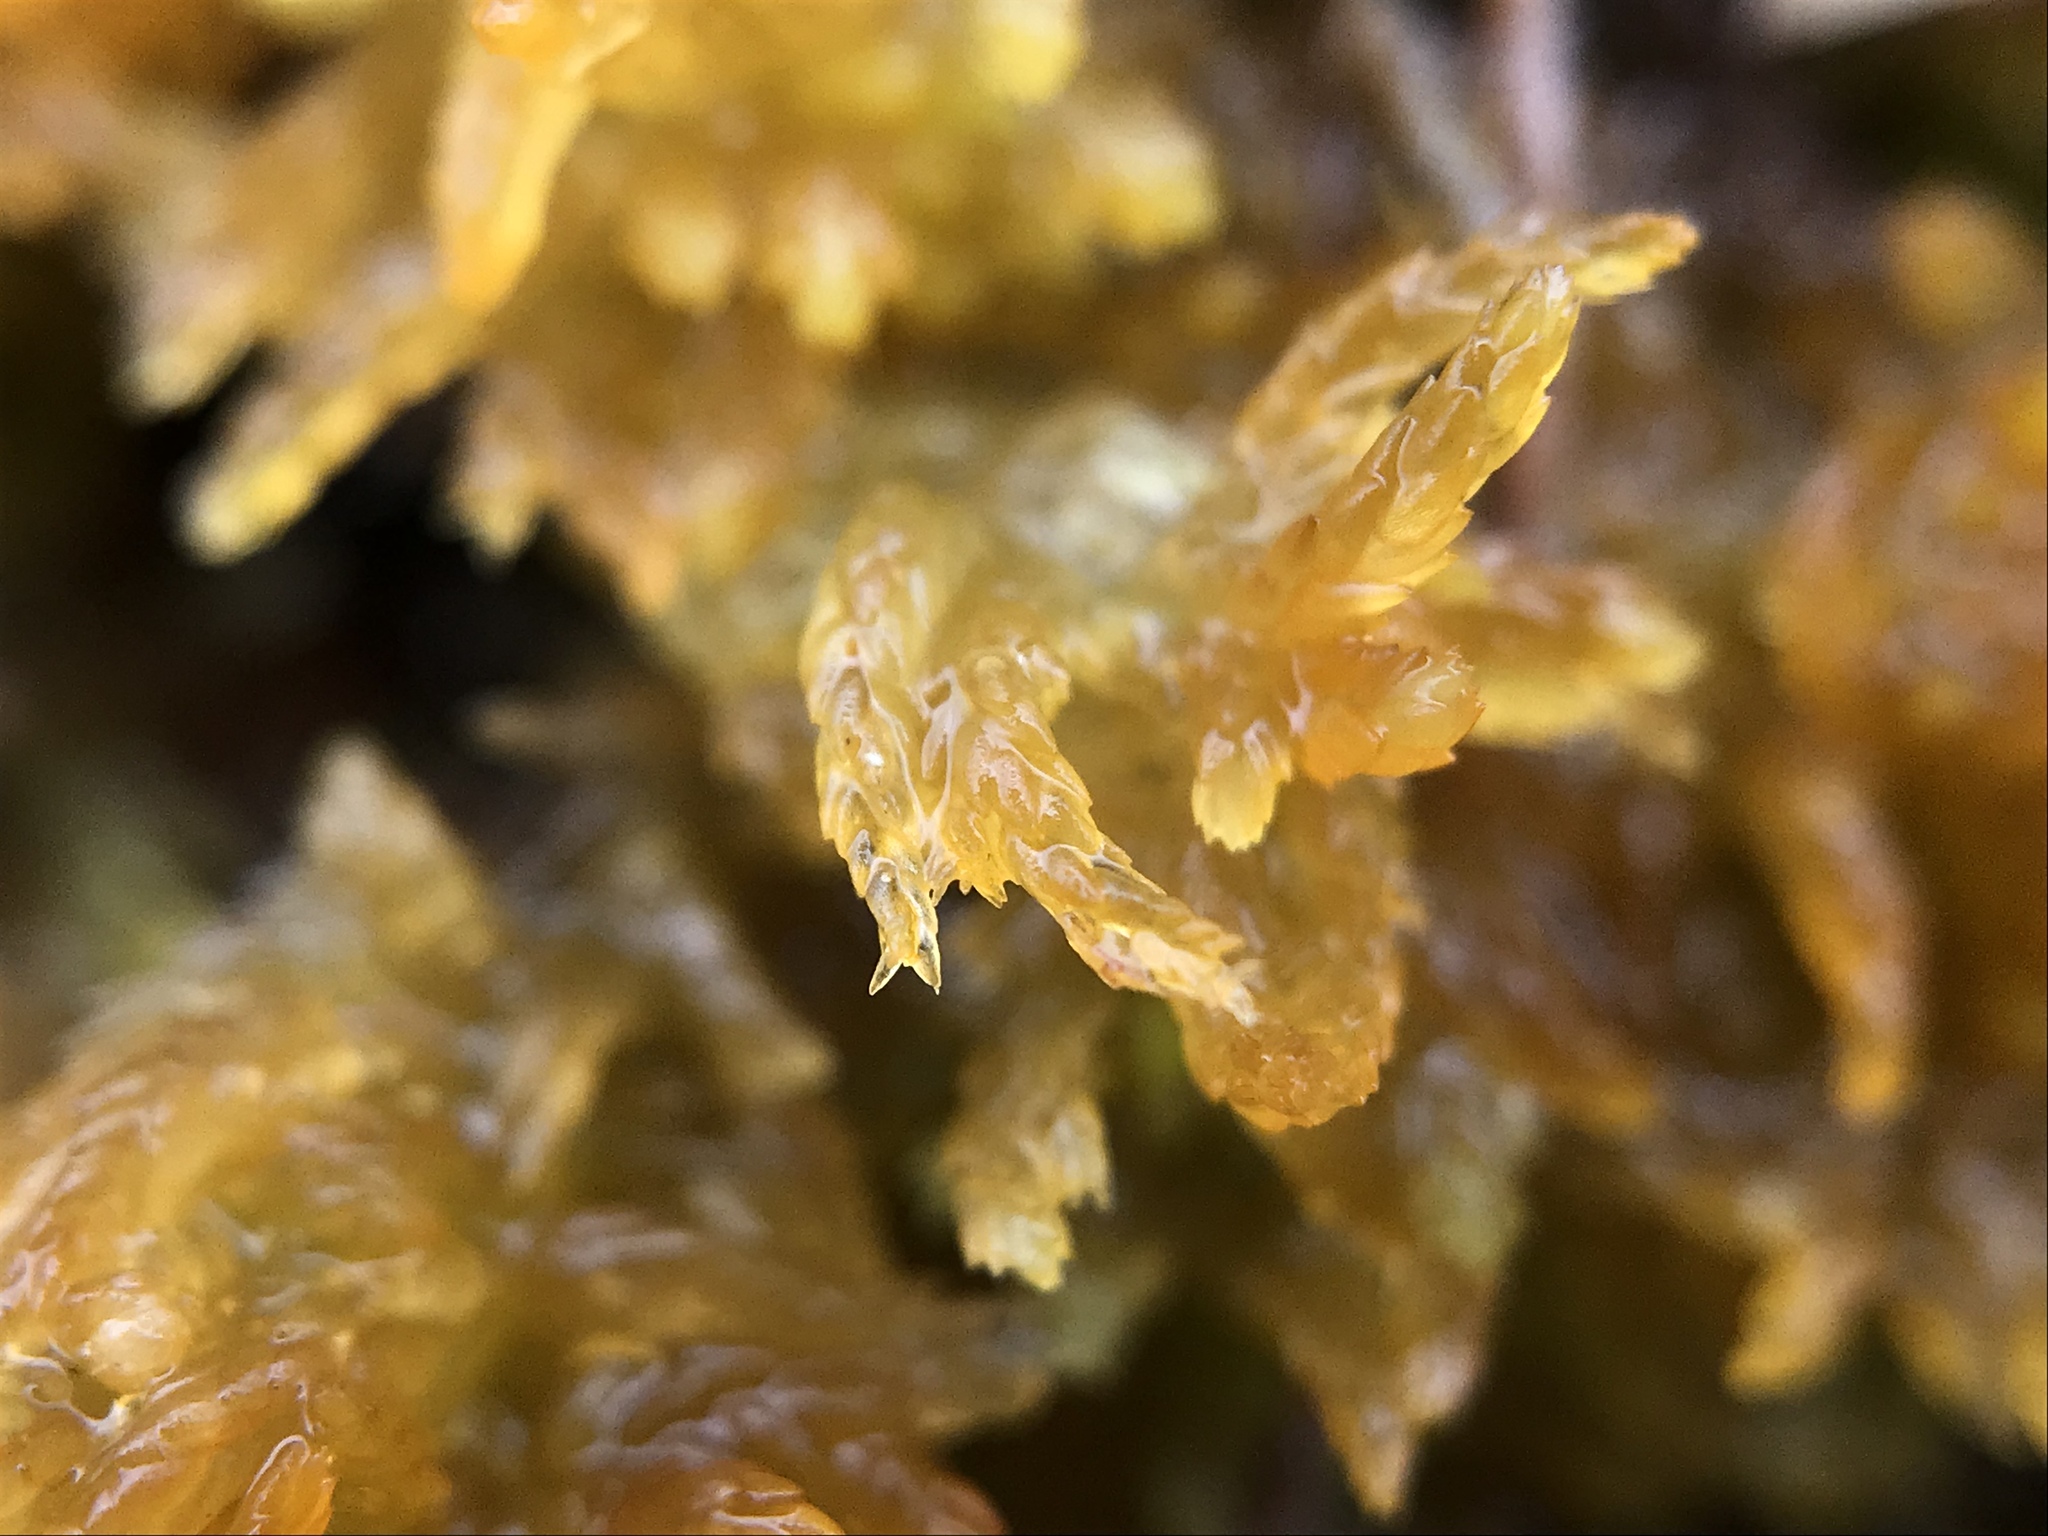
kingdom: Plantae
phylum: Bryophyta
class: Sphagnopsida
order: Sphagnales
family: Sphagnaceae
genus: Sphagnum
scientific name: Sphagnum tenellum
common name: Soft bog-moss
